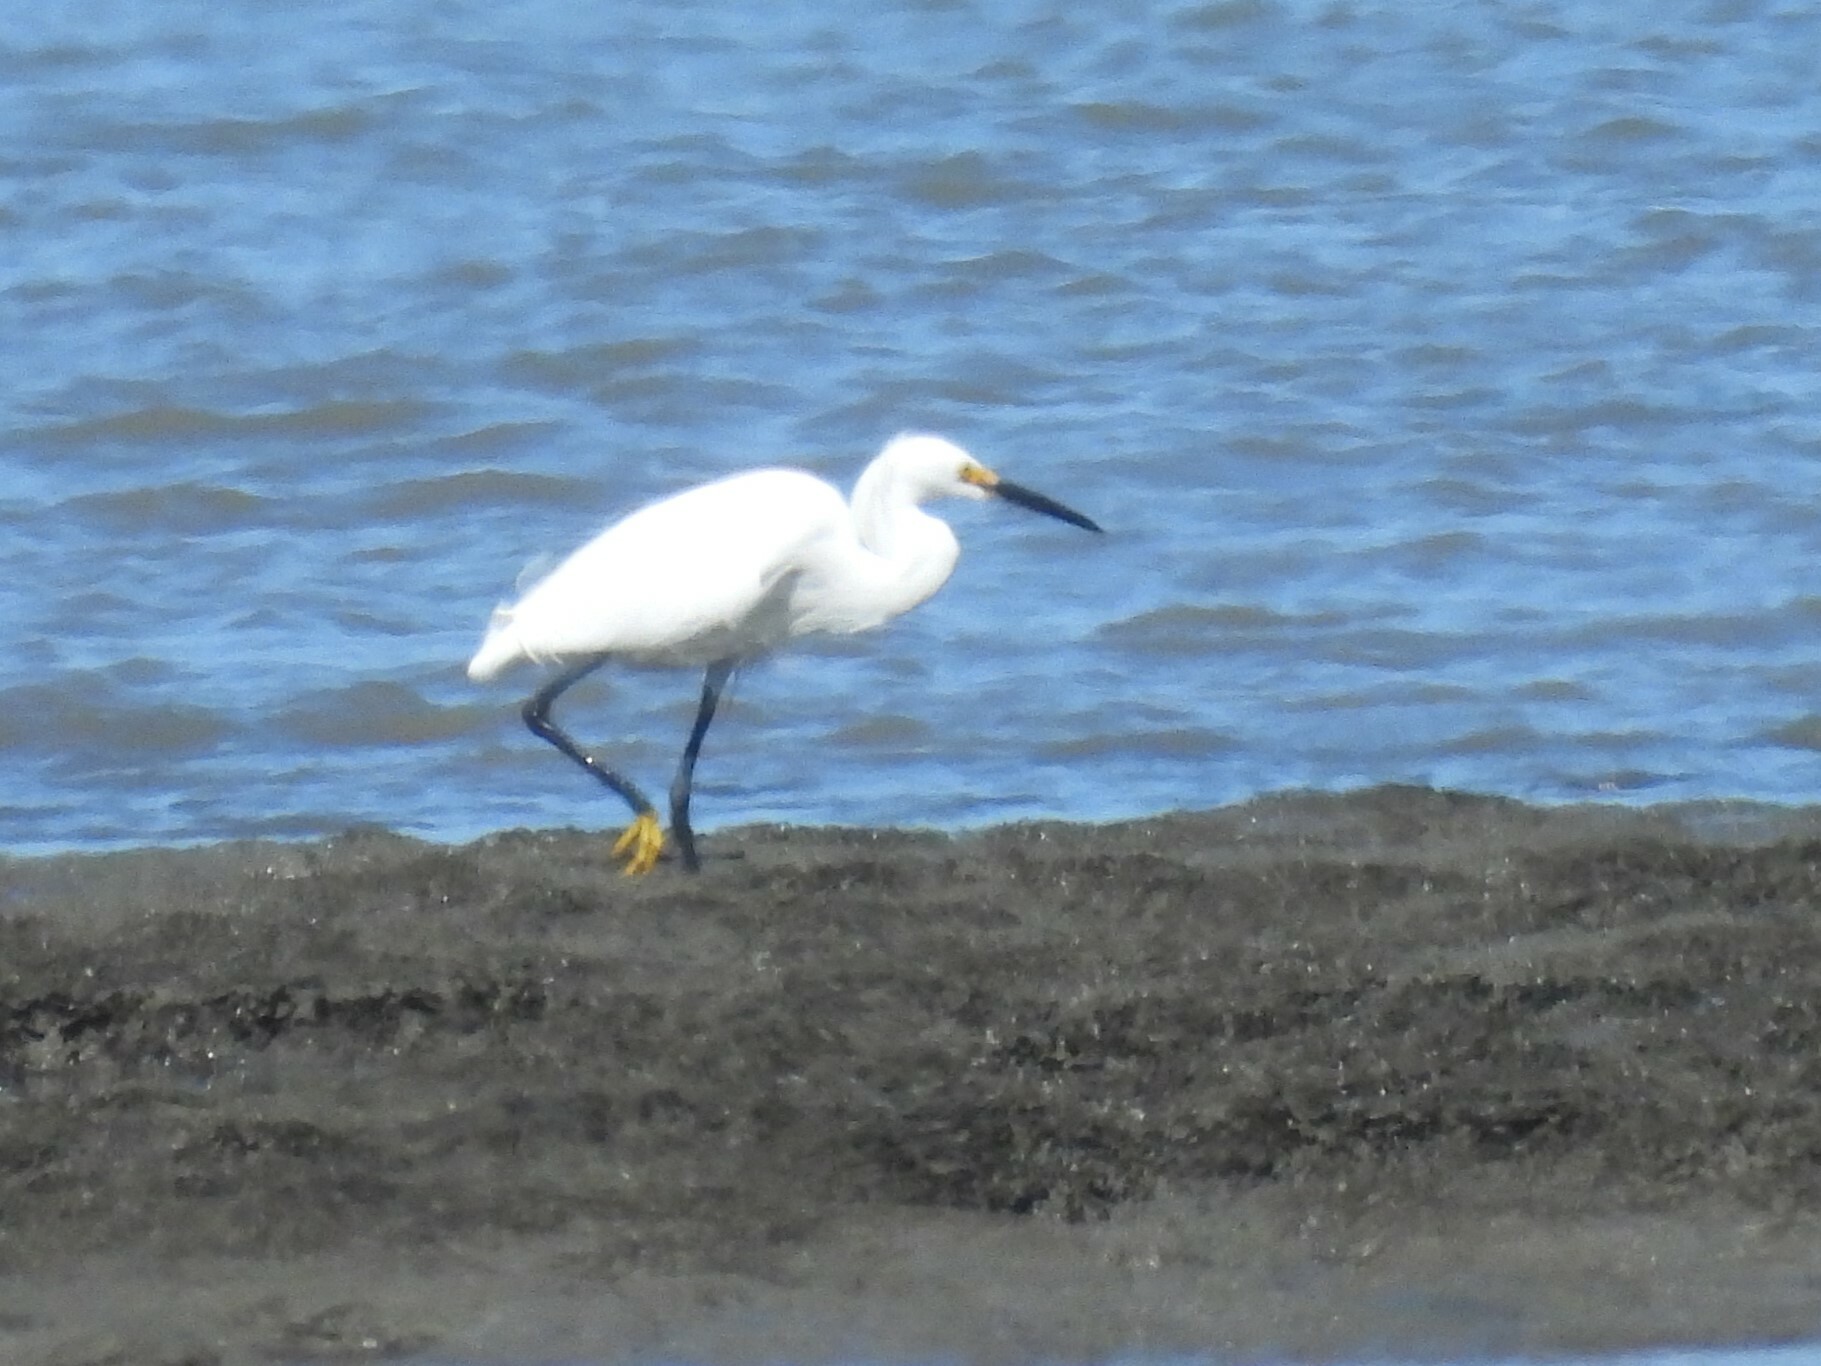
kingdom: Animalia
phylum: Chordata
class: Aves
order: Pelecaniformes
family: Ardeidae
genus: Egretta
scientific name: Egretta thula
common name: Snowy egret
